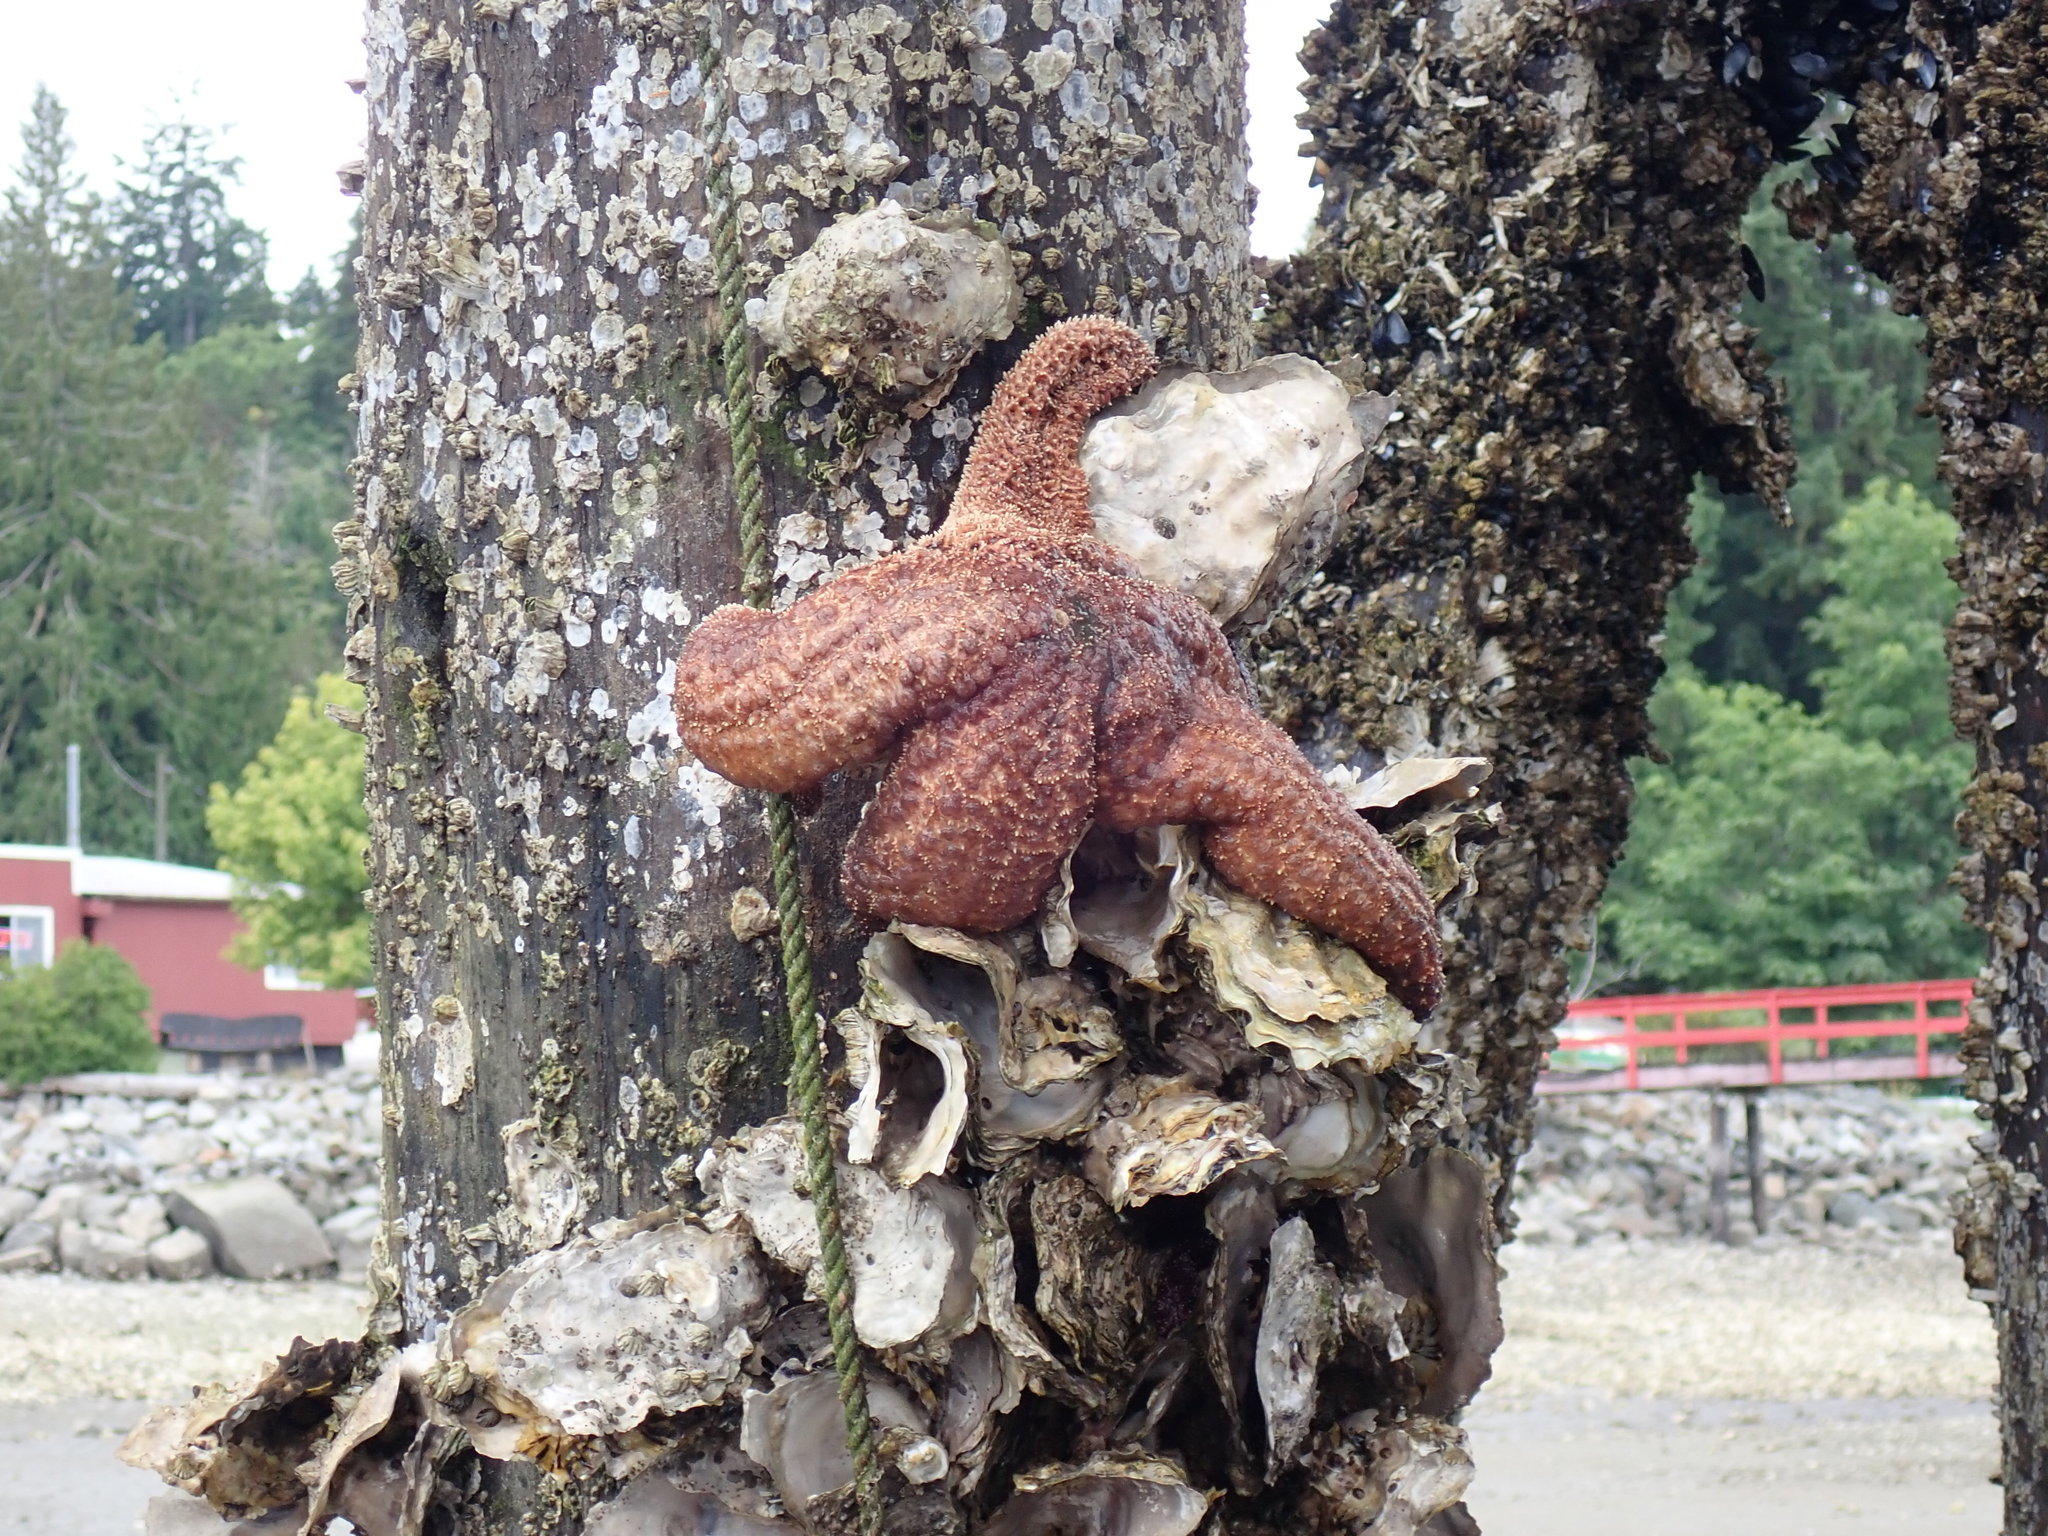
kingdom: Animalia
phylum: Echinodermata
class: Asteroidea
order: Forcipulatida
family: Asteriidae
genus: Pisaster
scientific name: Pisaster ochraceus
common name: Ochre stars
